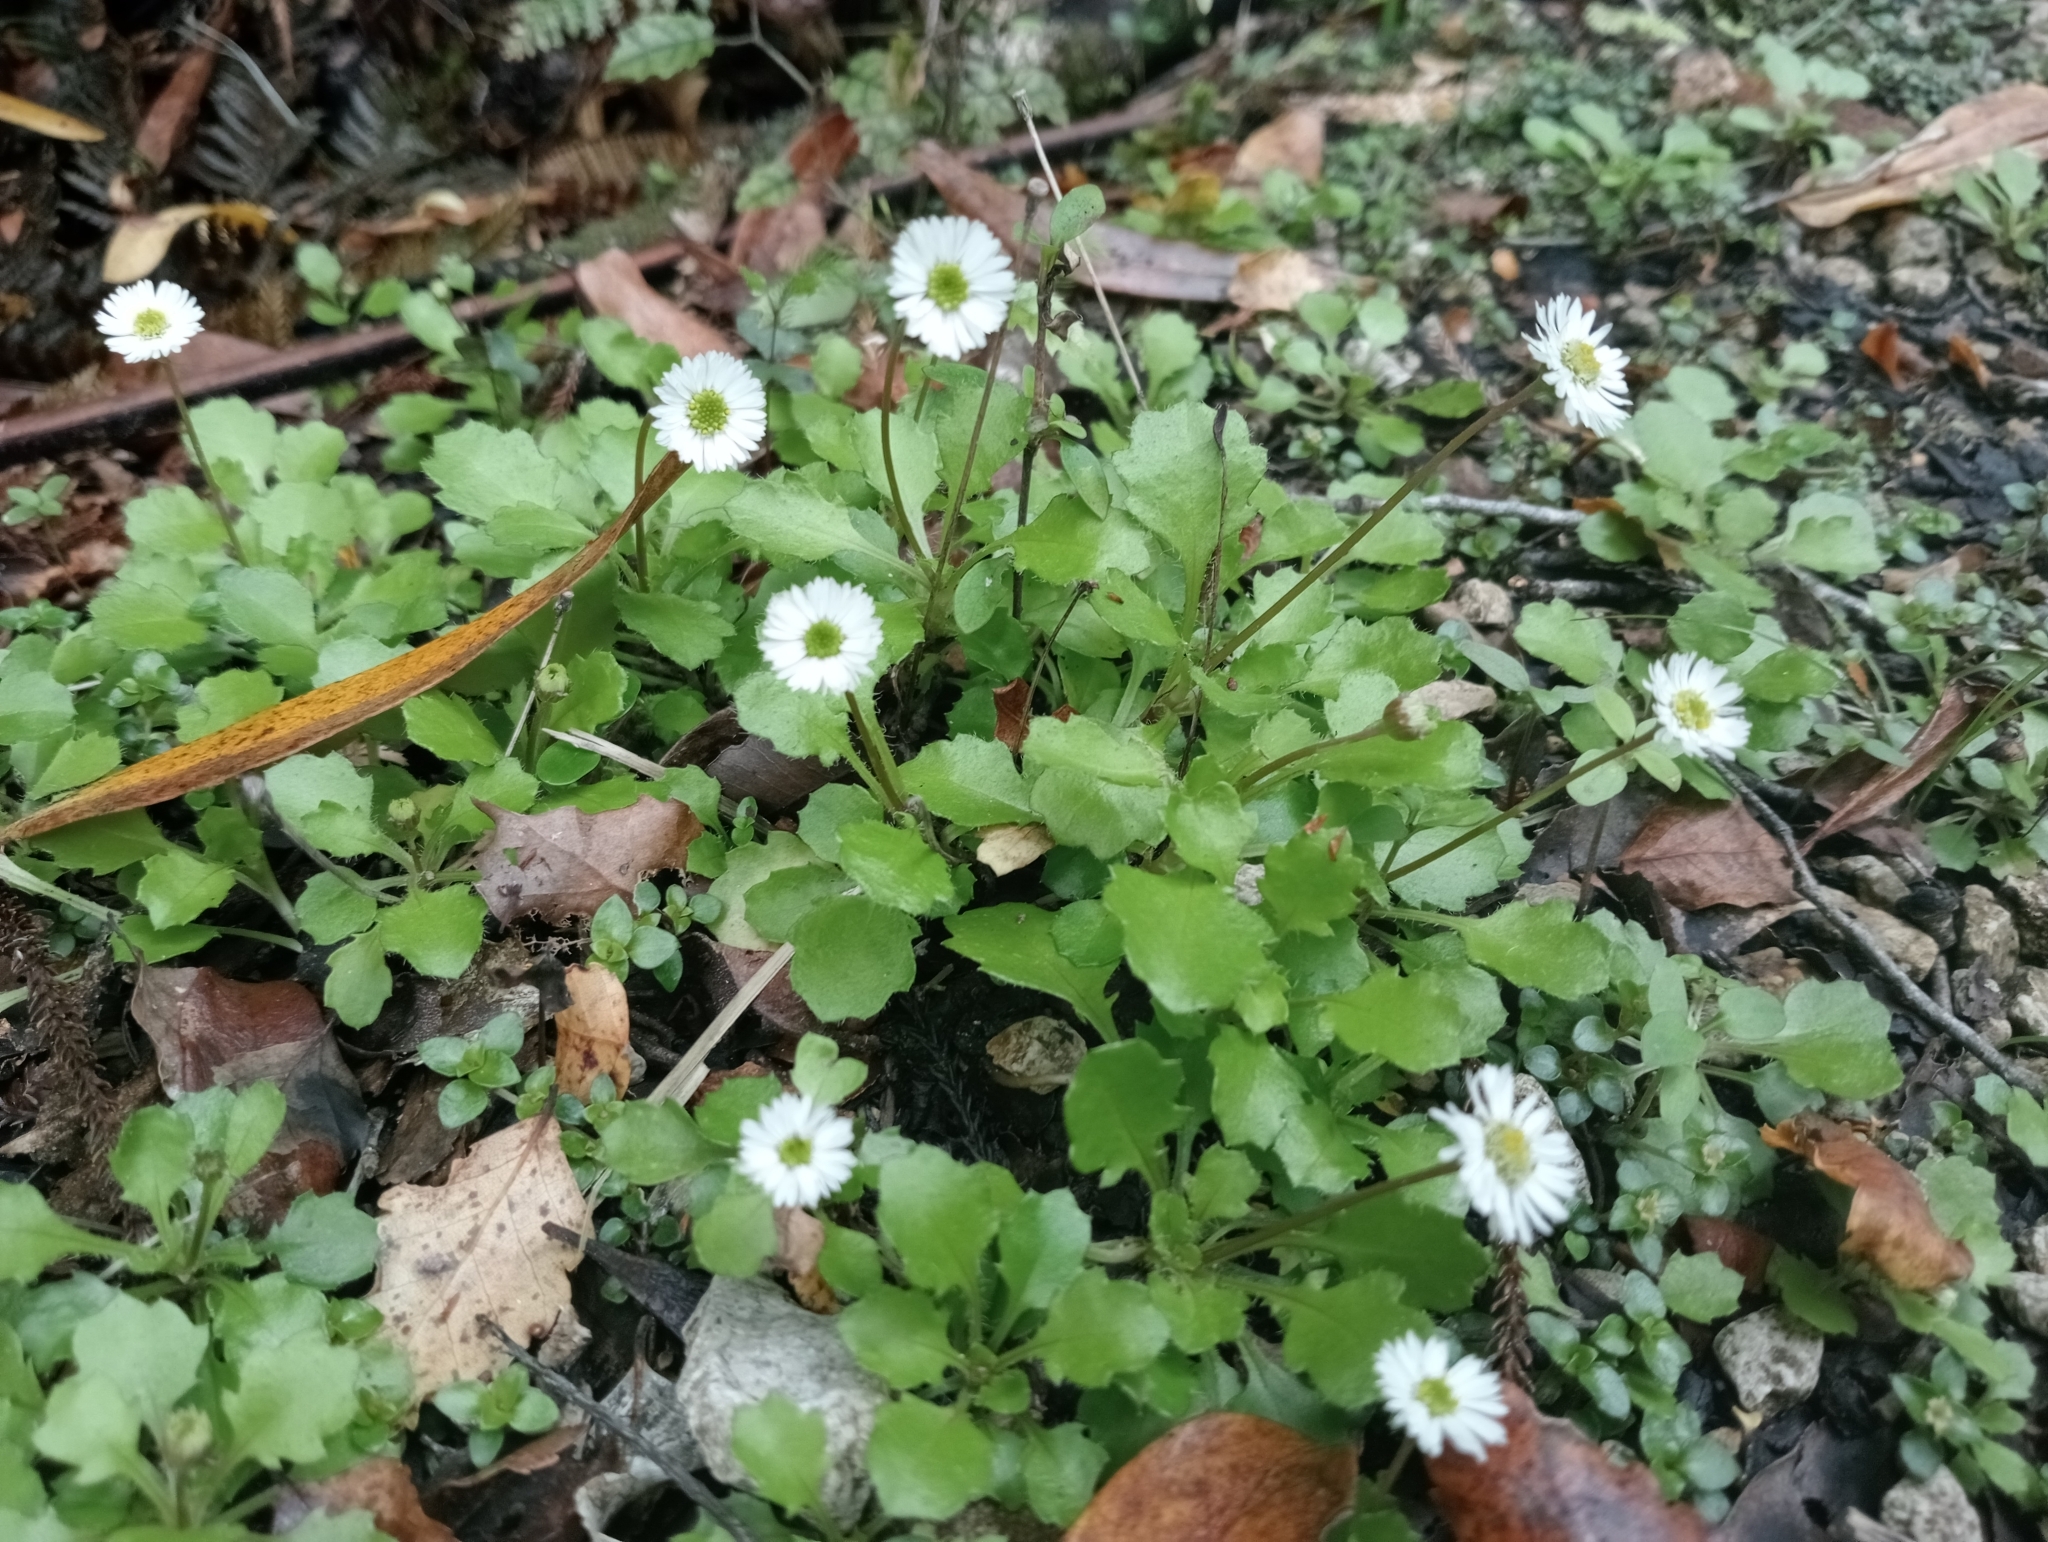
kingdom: Plantae
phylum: Tracheophyta
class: Magnoliopsida
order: Asterales
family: Asteraceae
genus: Lagenophora
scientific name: Lagenophora pumila
